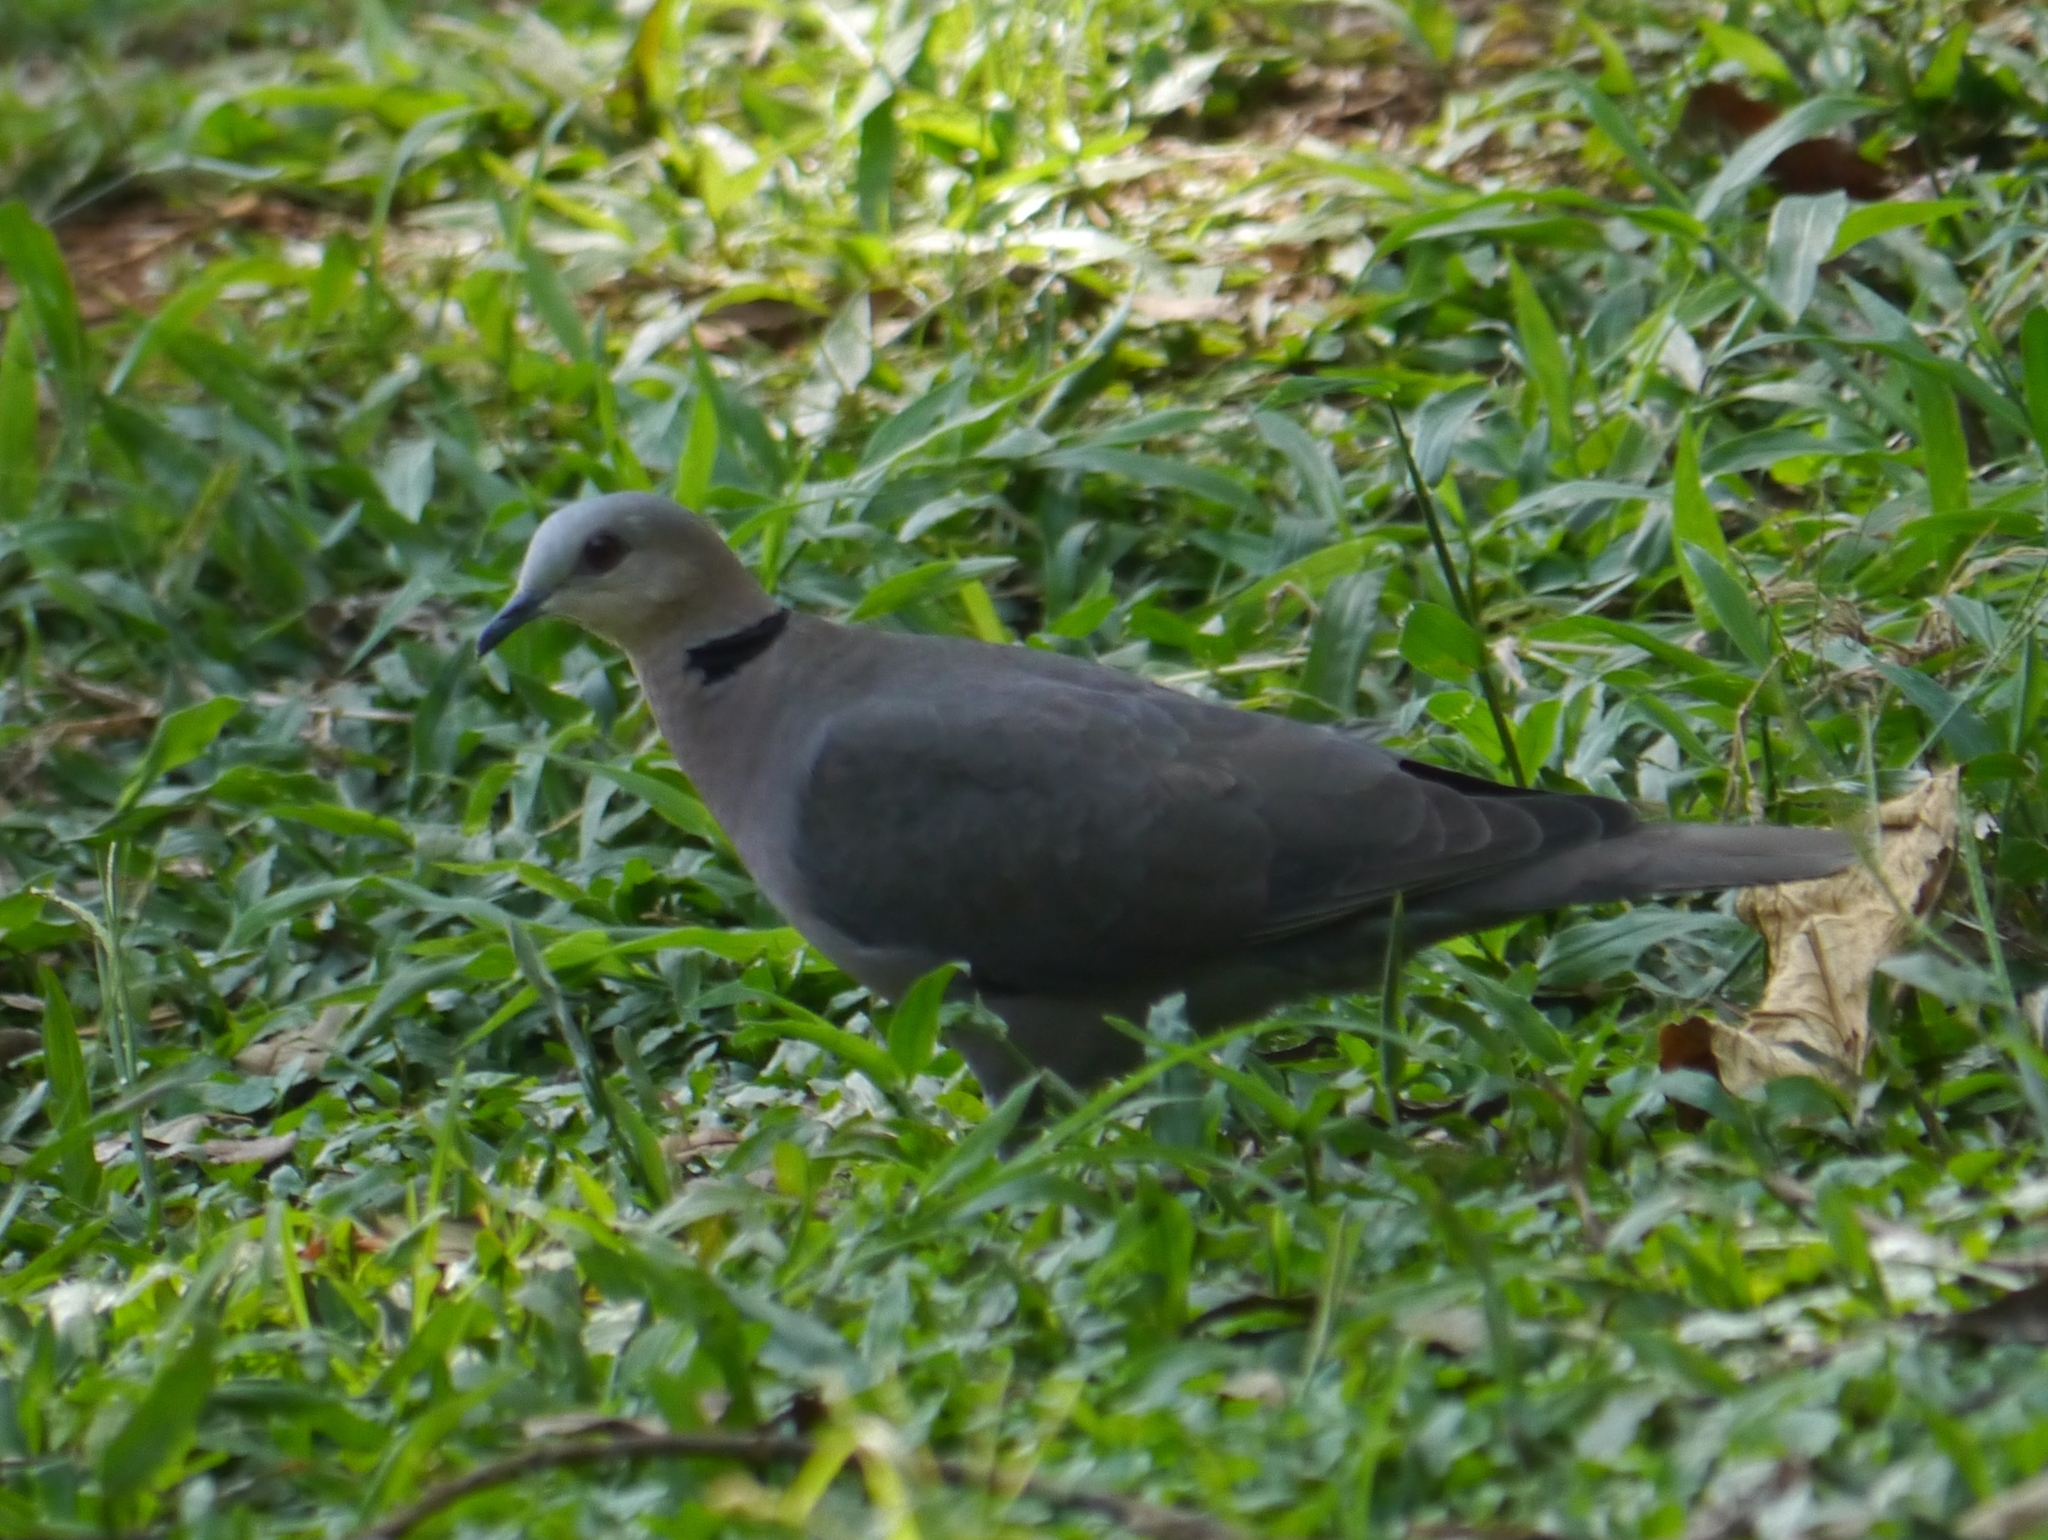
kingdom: Animalia
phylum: Chordata
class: Aves
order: Columbiformes
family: Columbidae
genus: Streptopelia
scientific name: Streptopelia semitorquata
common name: Red-eyed dove
